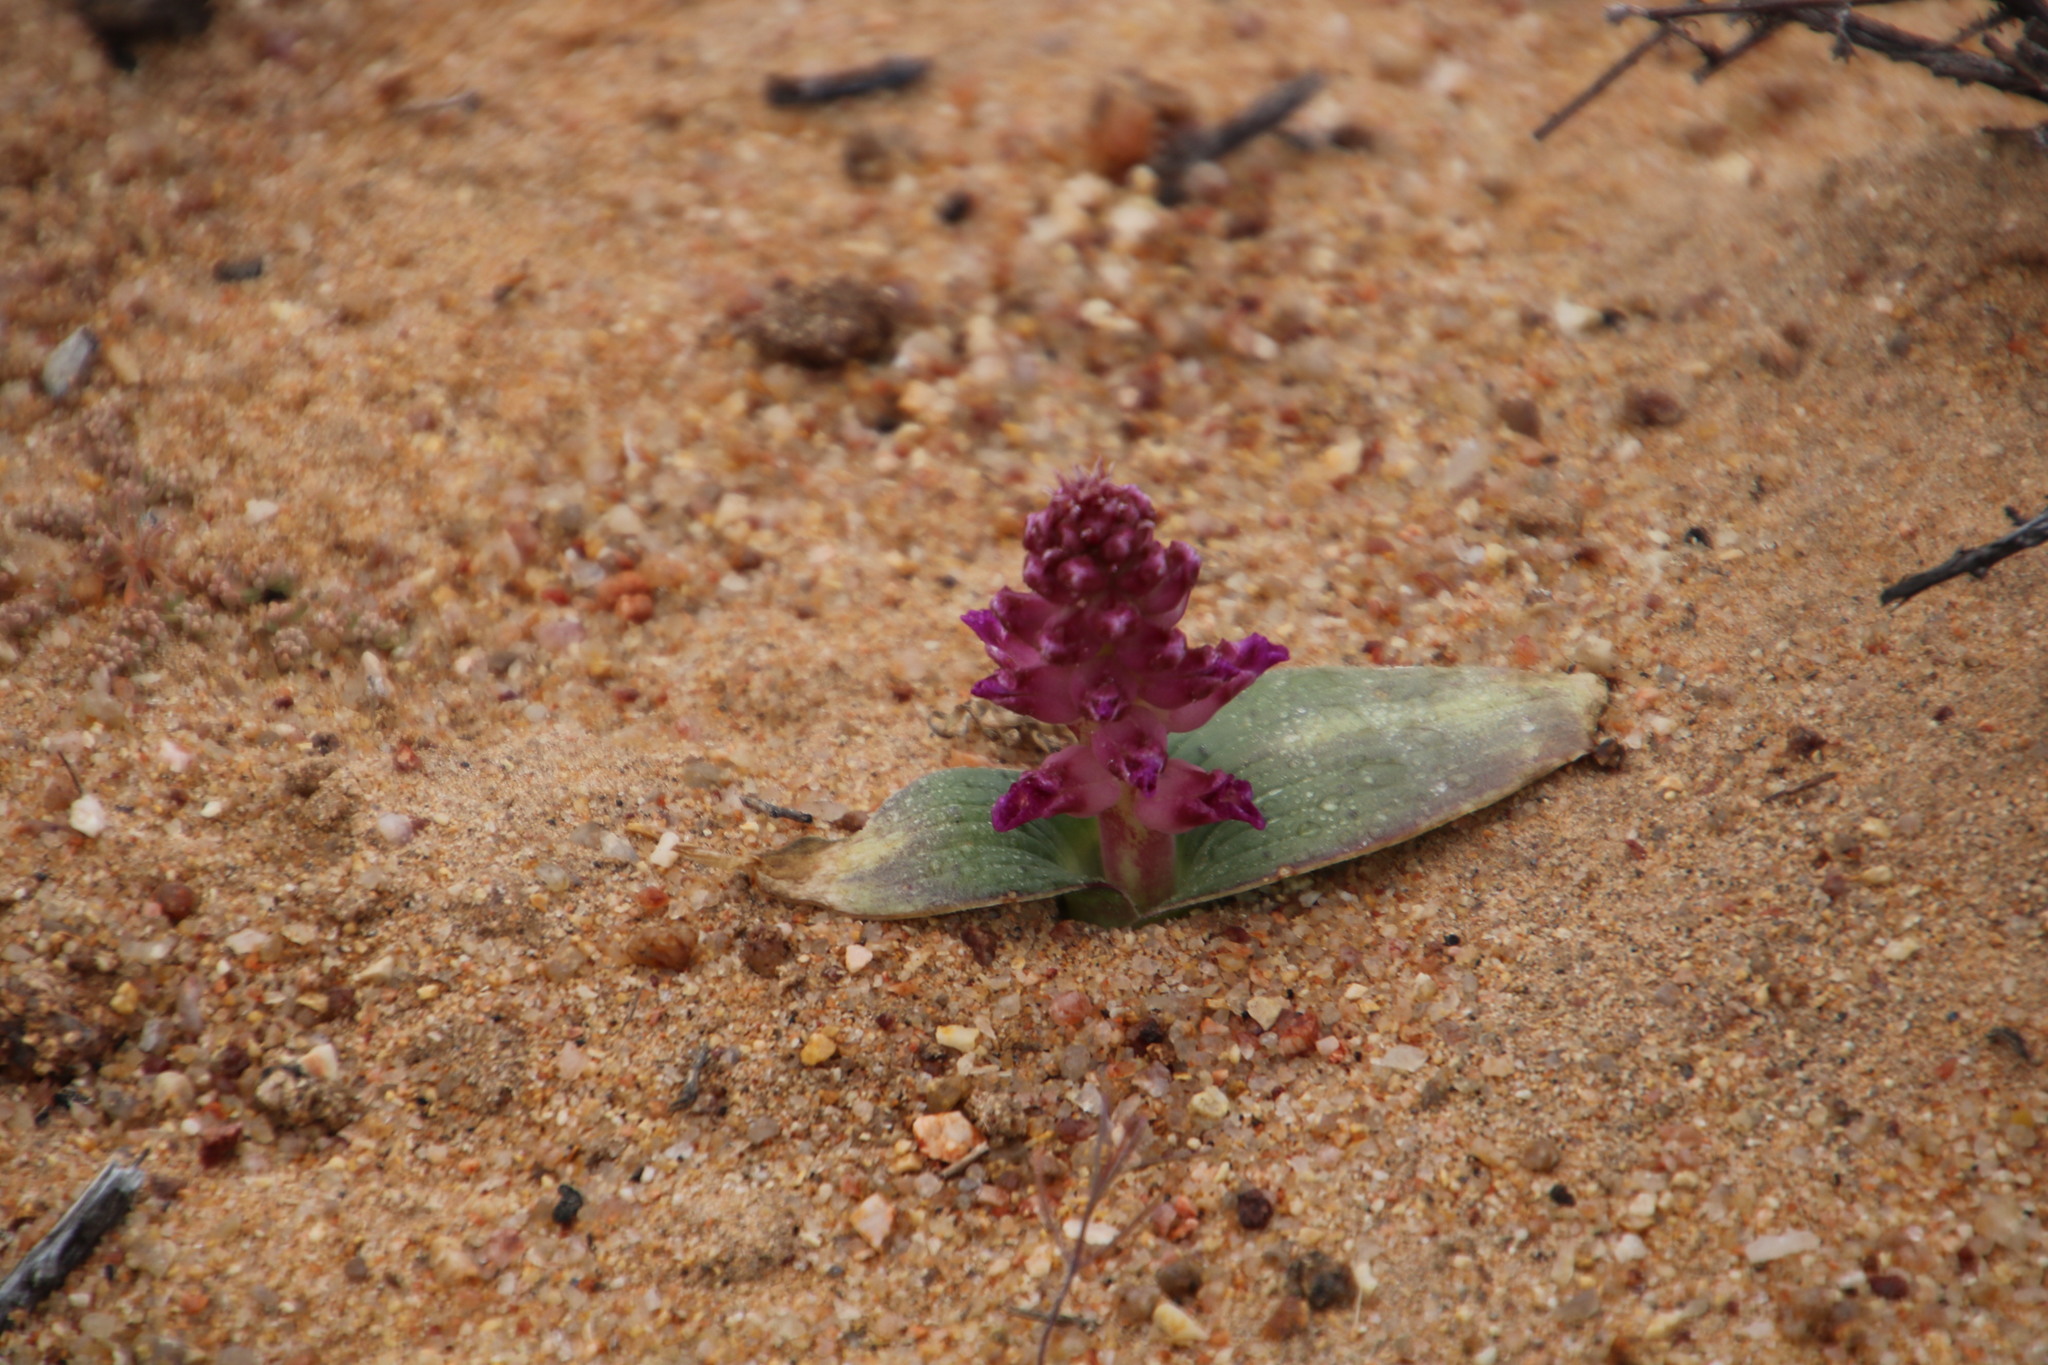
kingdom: Plantae
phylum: Tracheophyta
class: Liliopsida
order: Asparagales
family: Asparagaceae
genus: Lachenalia
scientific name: Lachenalia carnosa
